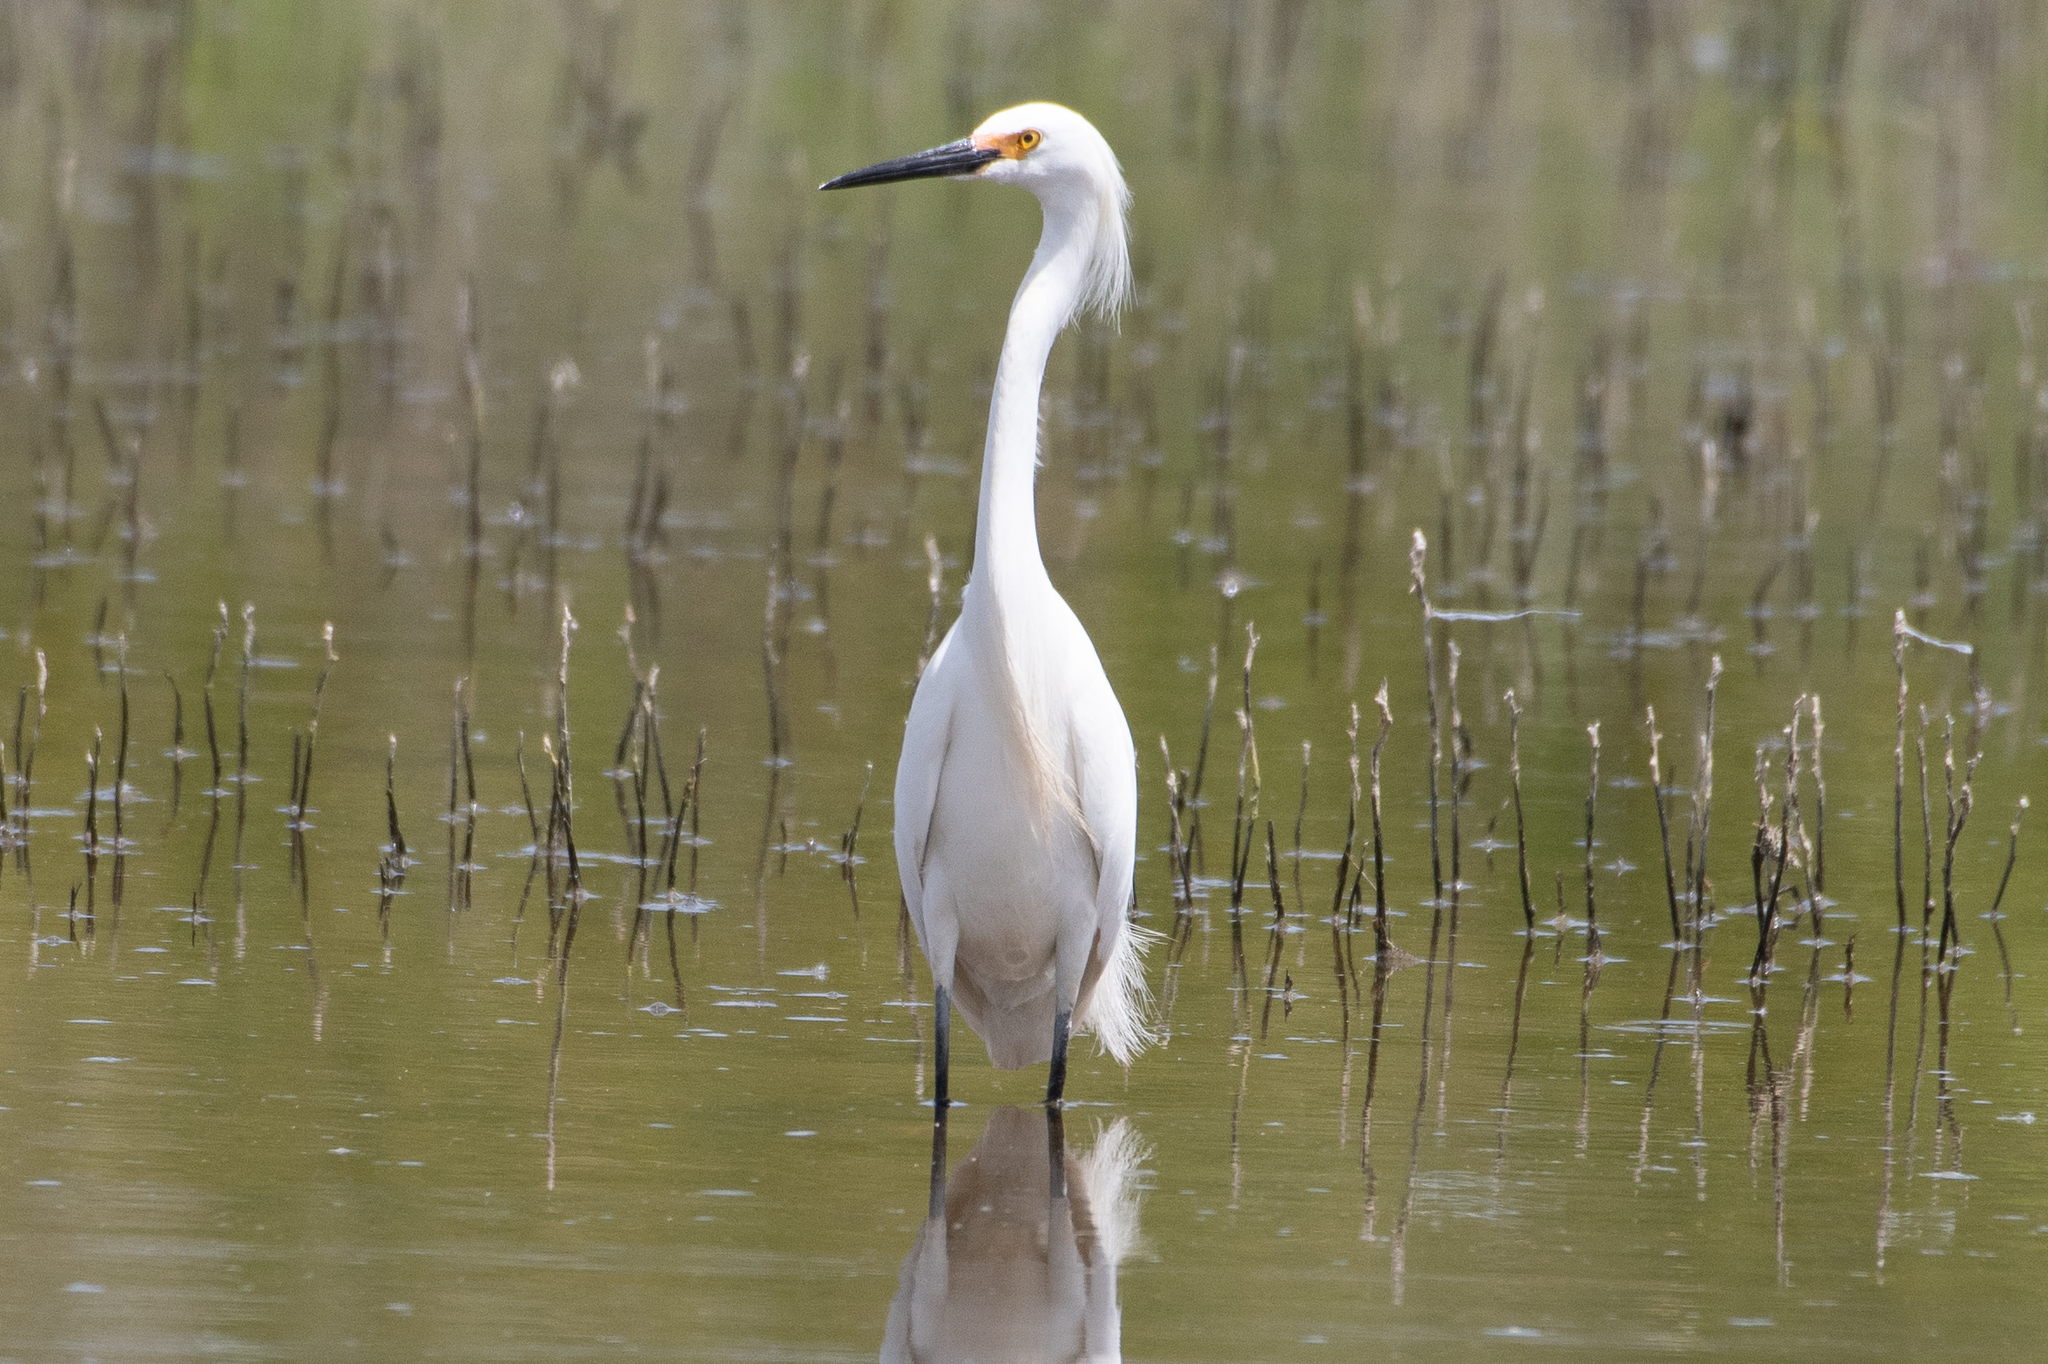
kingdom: Animalia
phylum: Chordata
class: Aves
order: Pelecaniformes
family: Ardeidae
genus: Egretta
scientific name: Egretta thula
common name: Snowy egret
